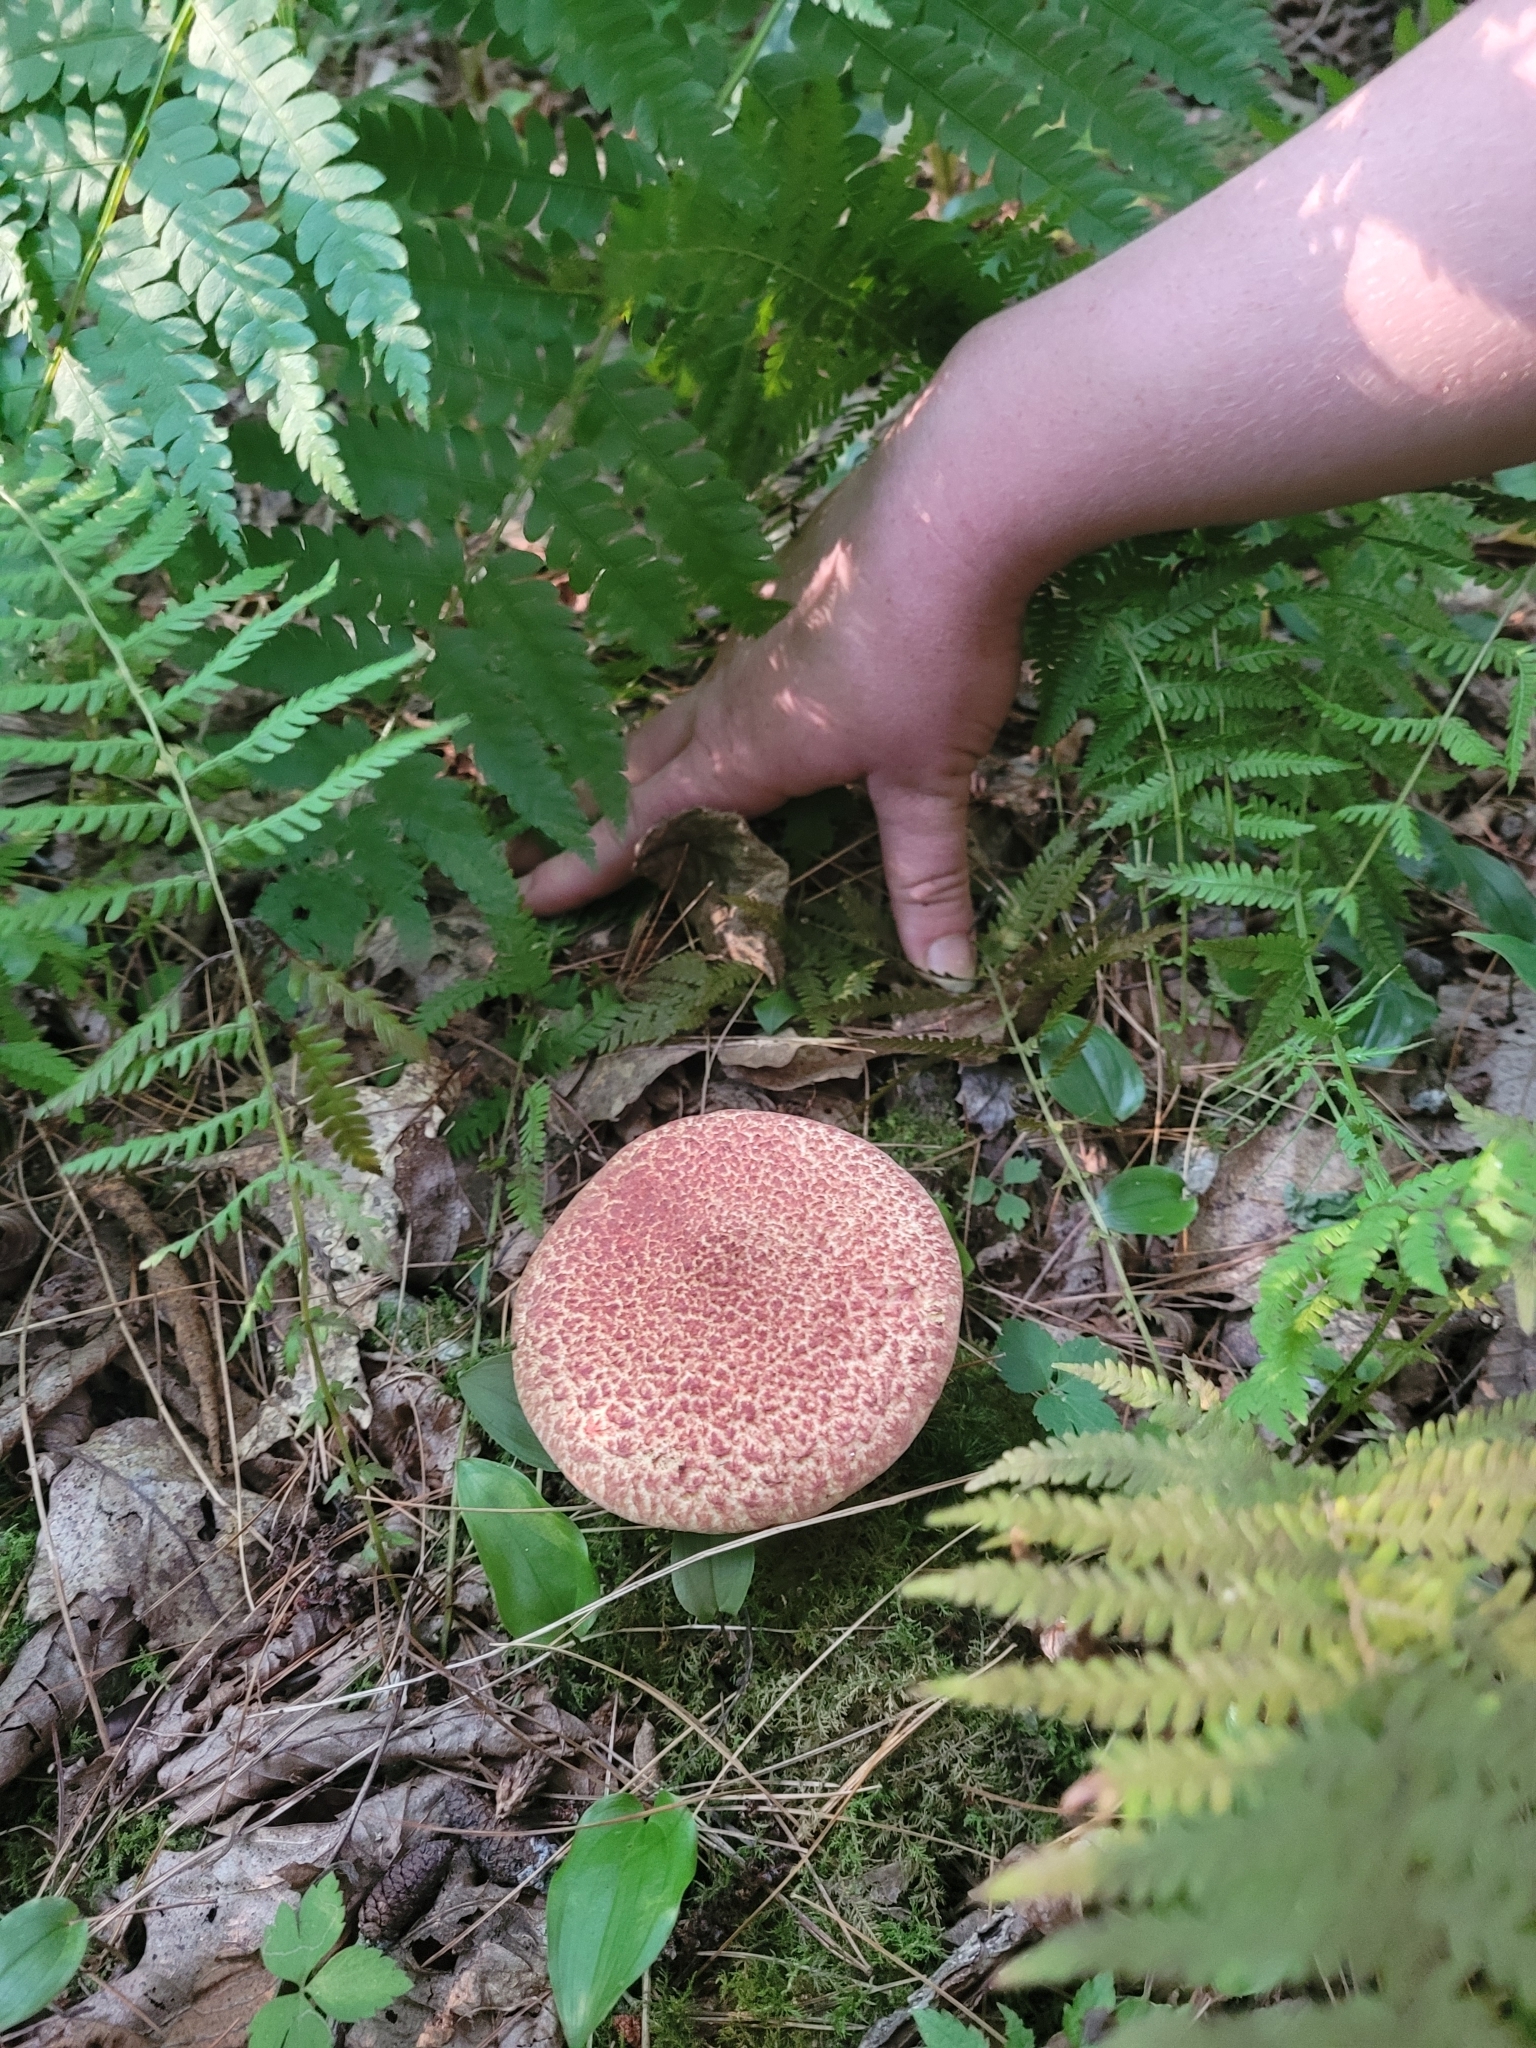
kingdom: Fungi
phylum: Basidiomycota
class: Agaricomycetes
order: Boletales
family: Suillaceae
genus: Suillus
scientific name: Suillus spraguei
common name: Painted suillus
